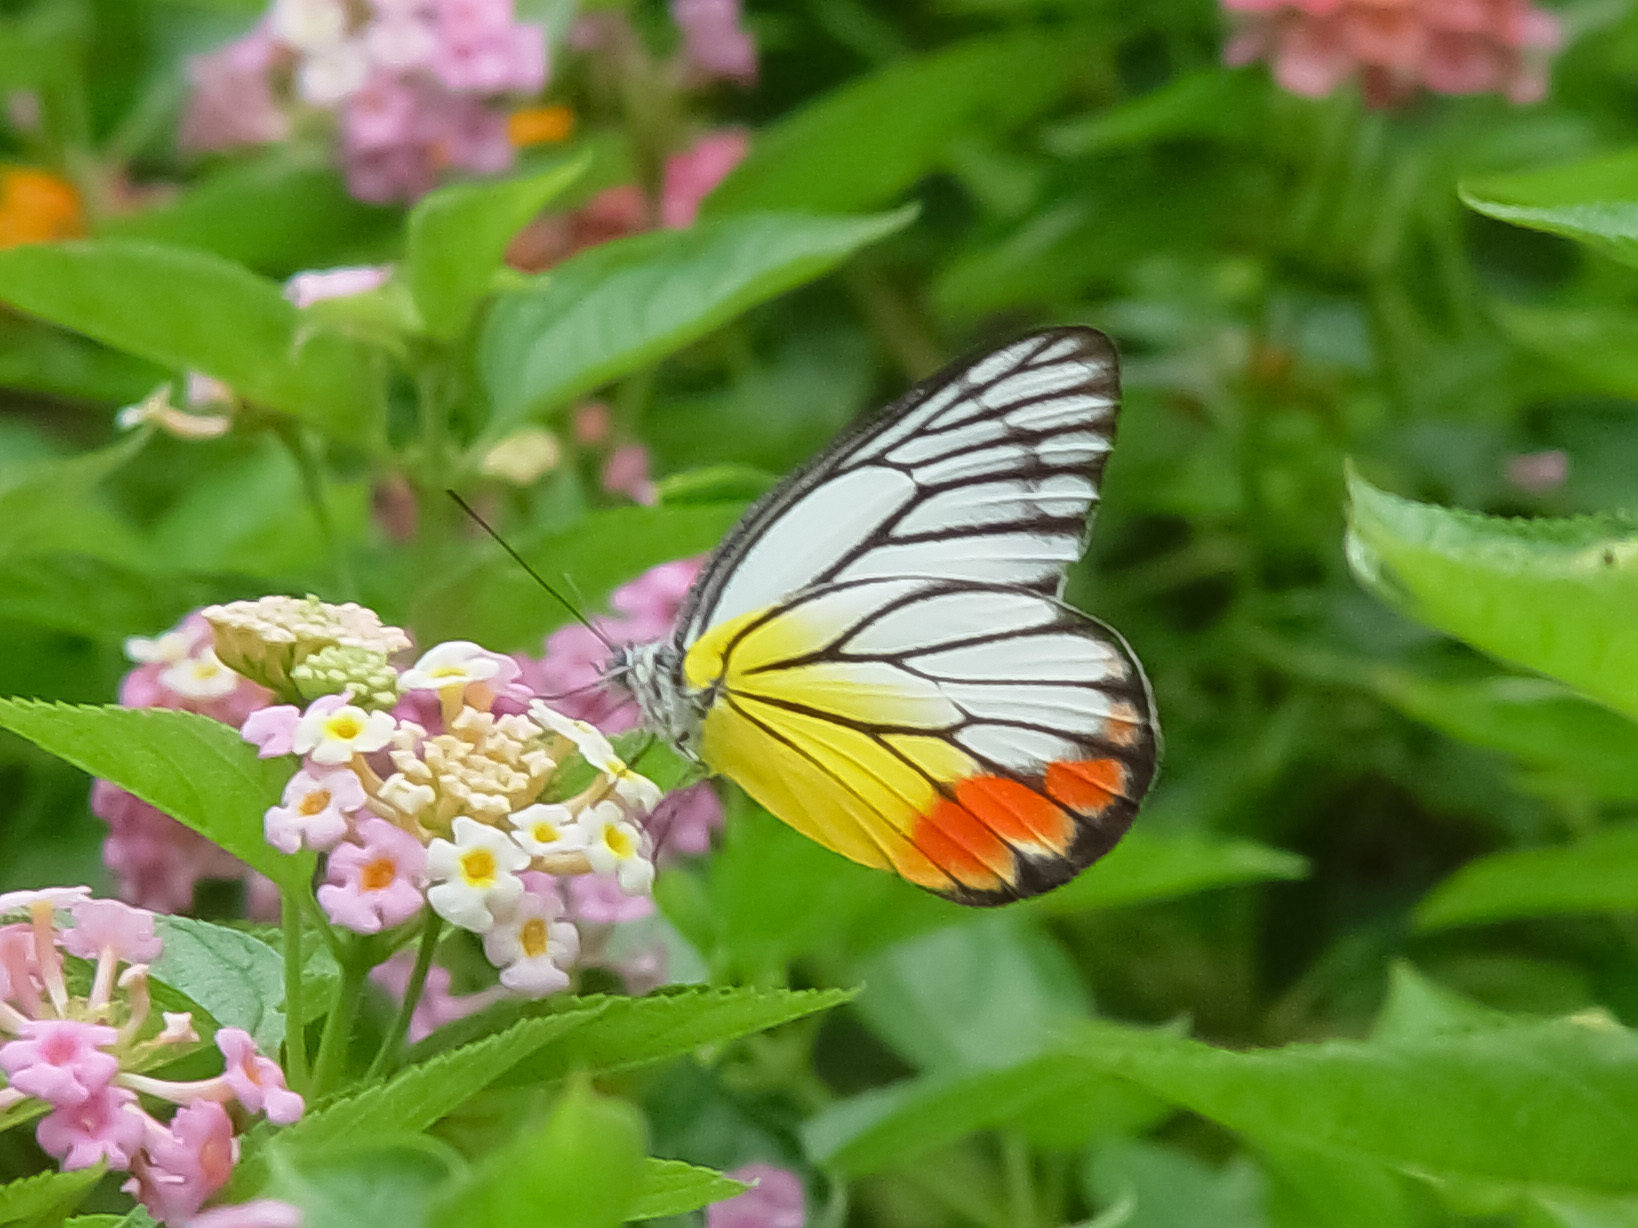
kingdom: Animalia
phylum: Arthropoda
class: Insecta
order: Lepidoptera
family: Pieridae
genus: Delias
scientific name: Delias hyparete
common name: Painted jezebel
